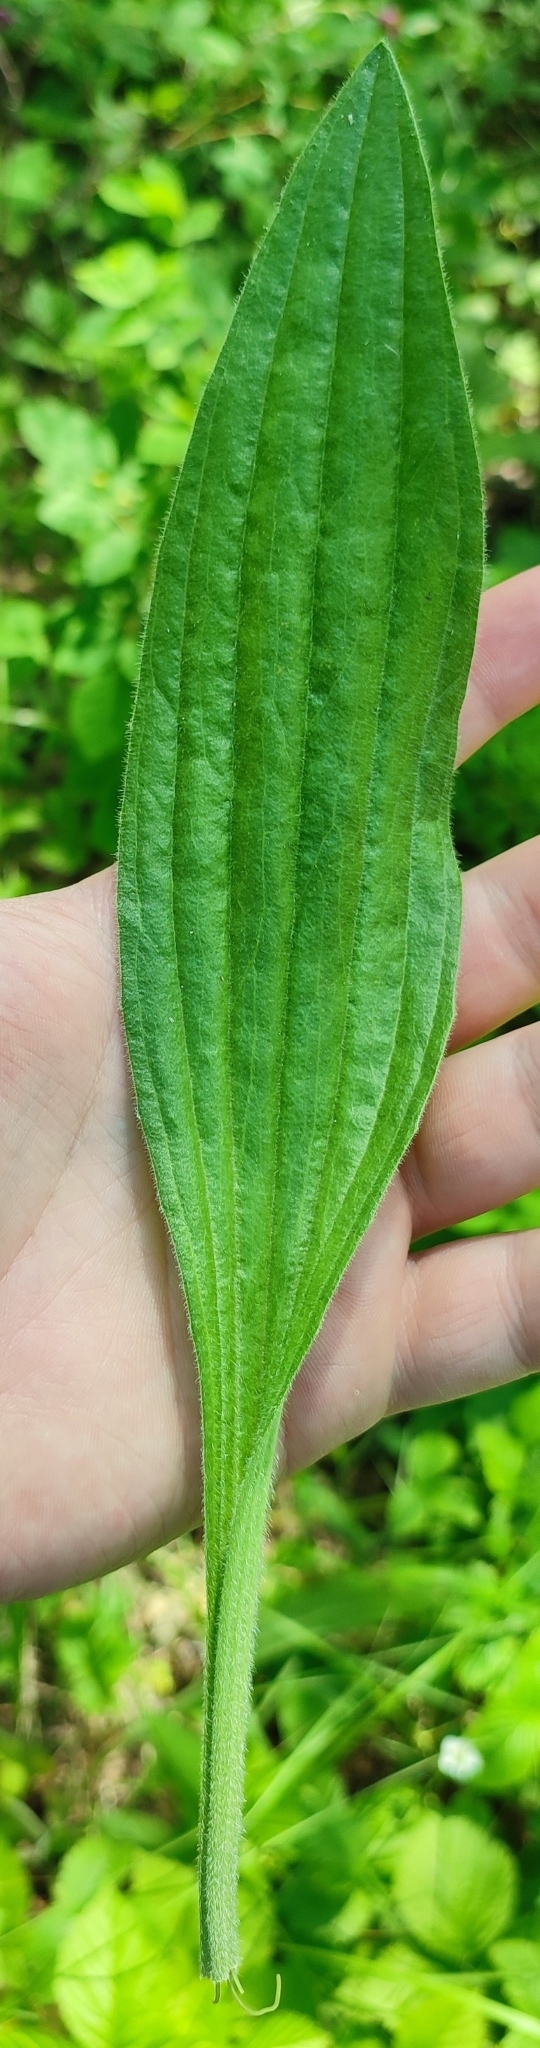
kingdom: Plantae
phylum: Tracheophyta
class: Magnoliopsida
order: Lamiales
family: Plantaginaceae
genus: Plantago
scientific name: Plantago urvillei
